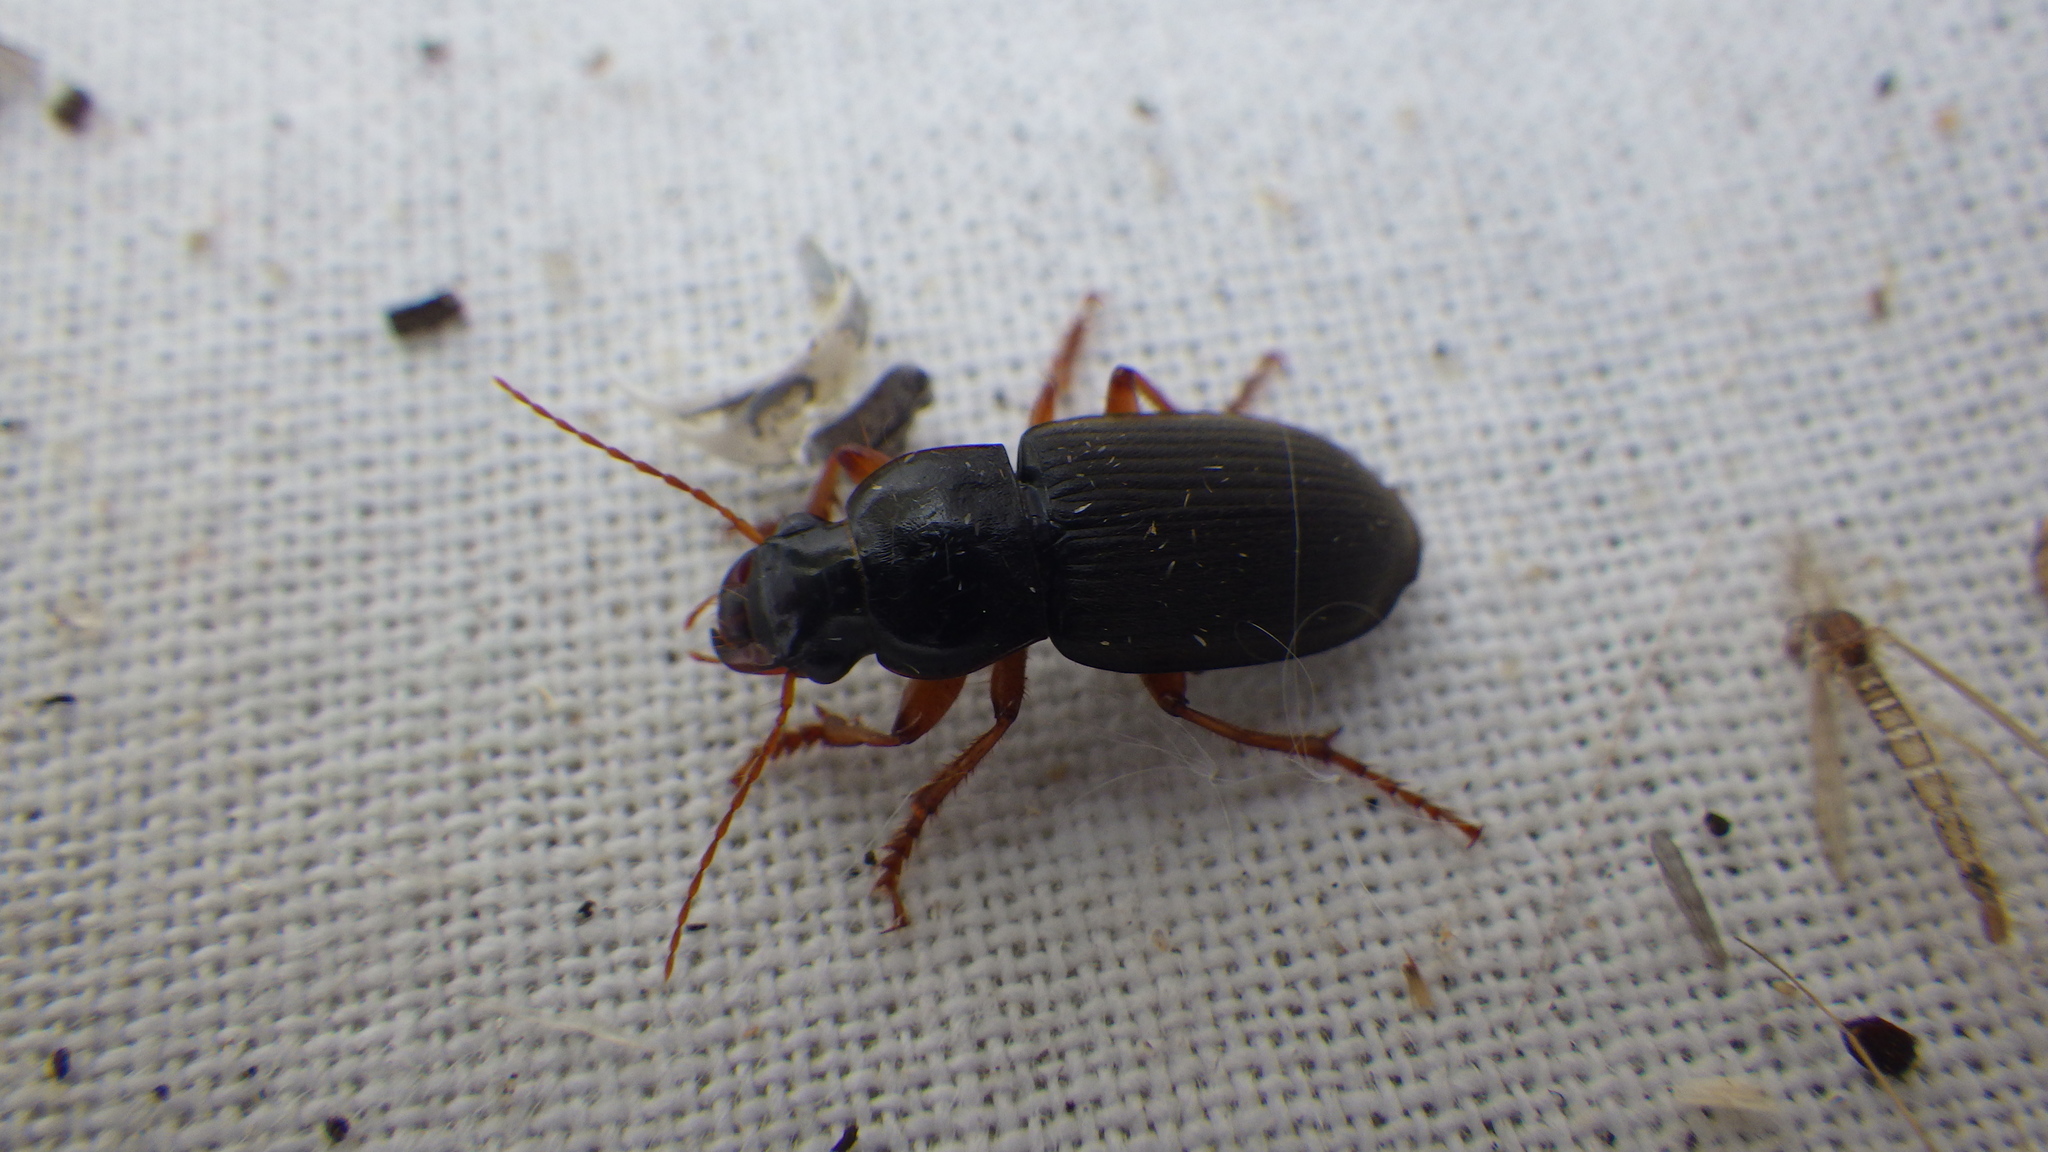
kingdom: Animalia
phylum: Arthropoda
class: Insecta
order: Coleoptera
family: Carabidae
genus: Harpalus
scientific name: Harpalus rufipes
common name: Strawberry harp ground beetle
